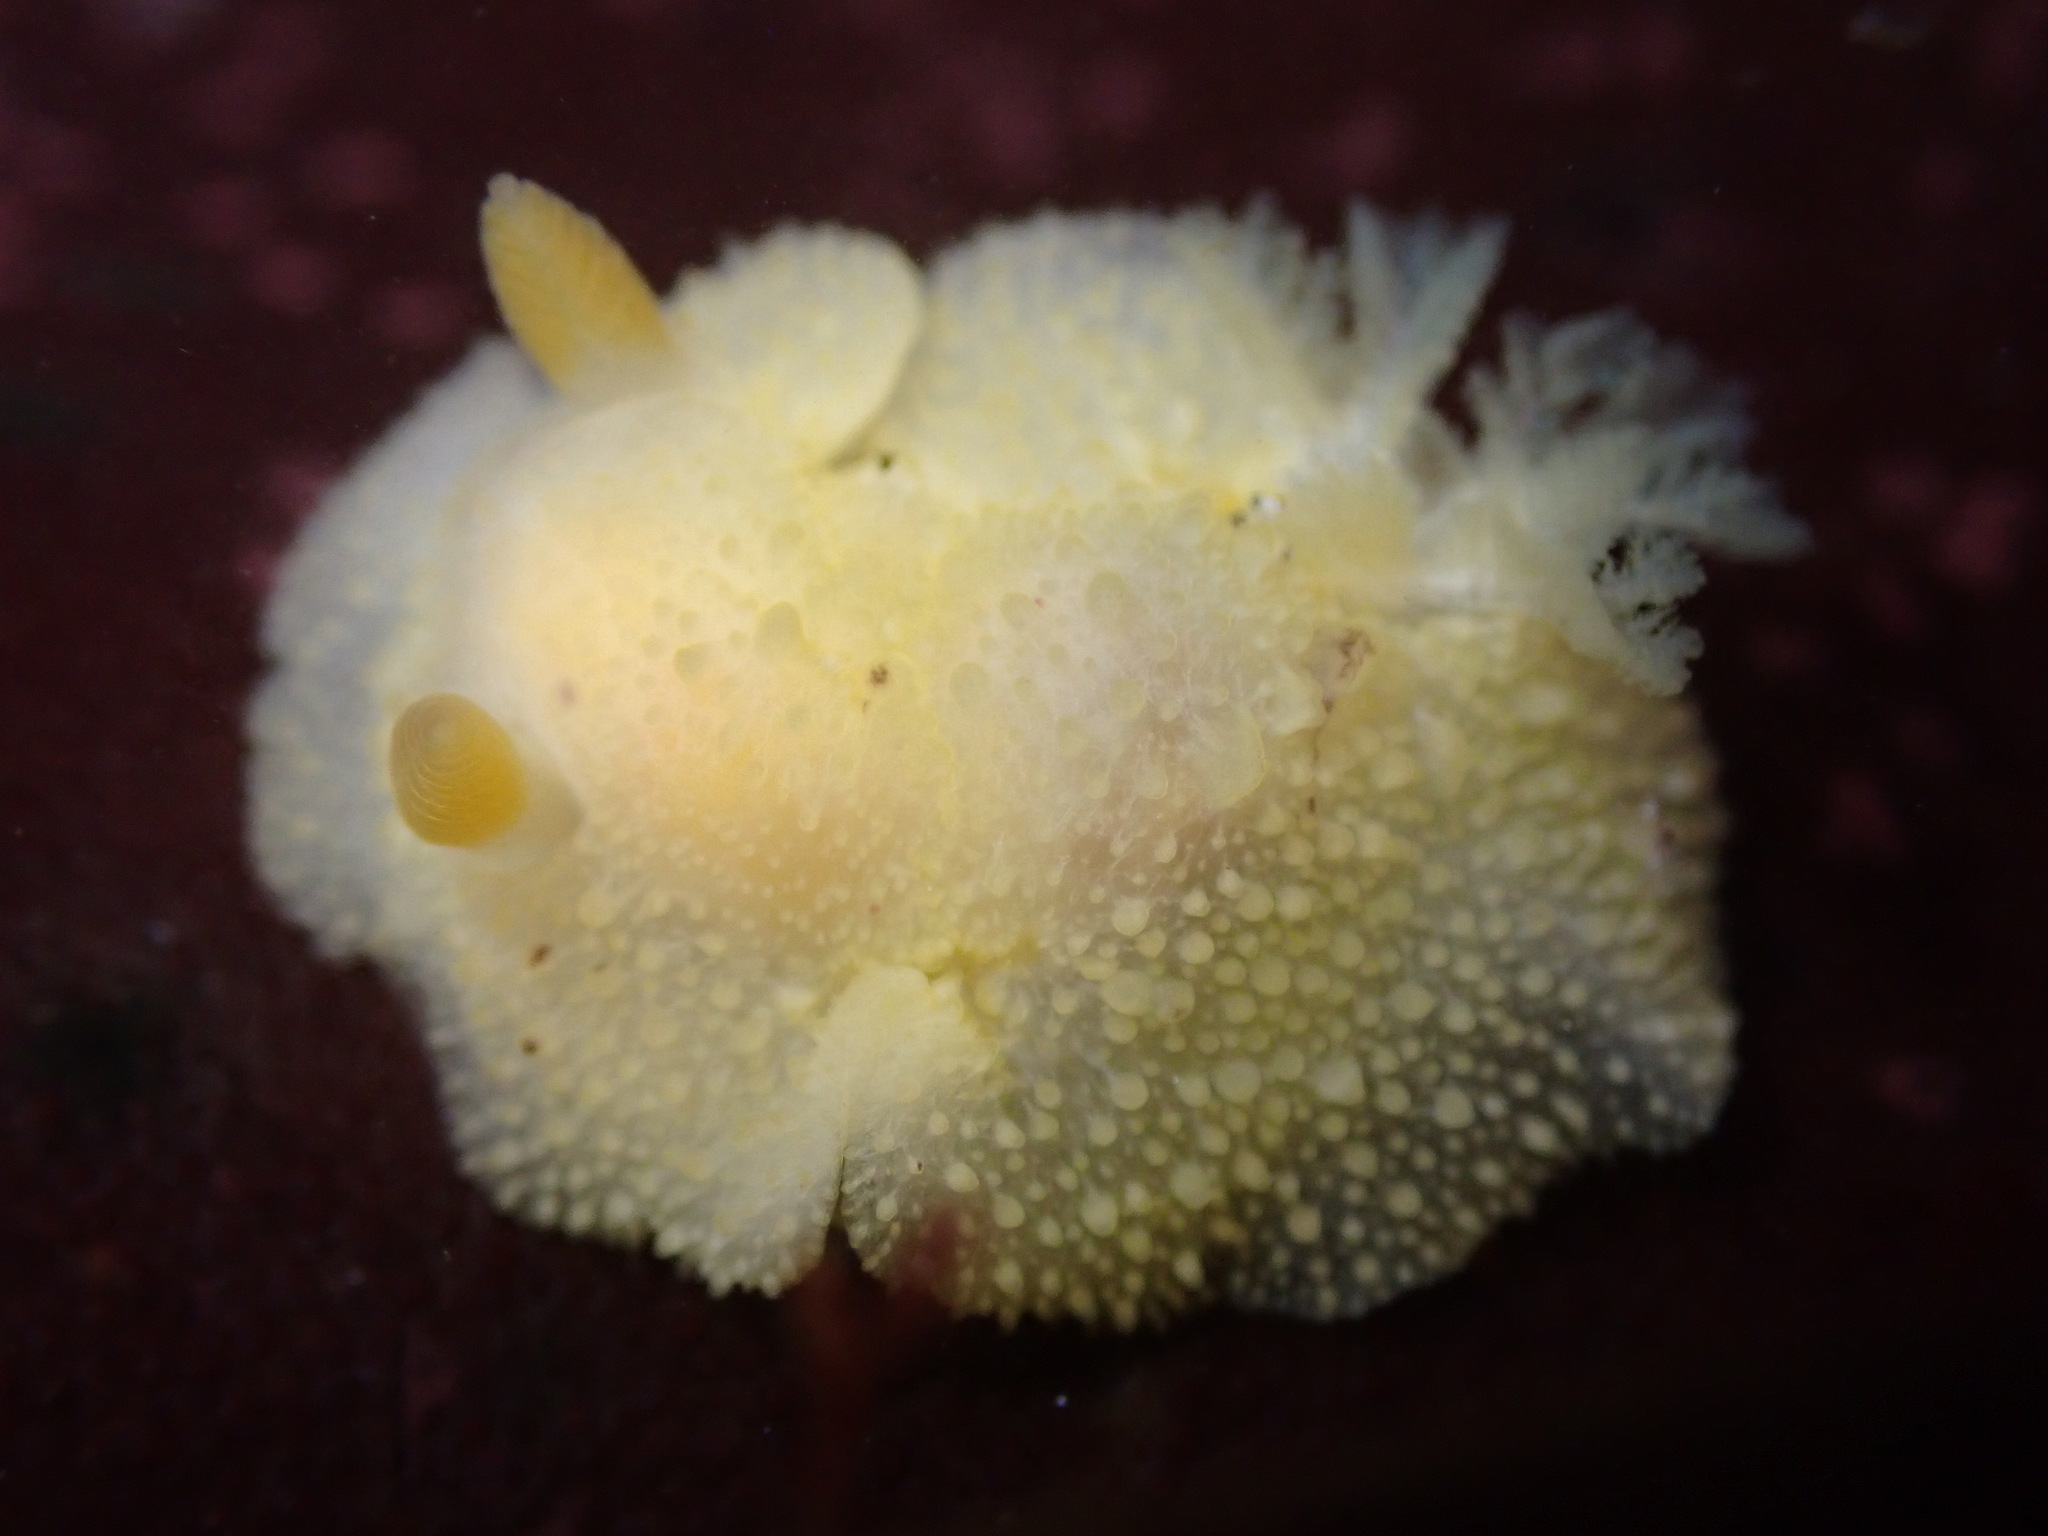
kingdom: Animalia
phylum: Mollusca
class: Gastropoda
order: Nudibranchia
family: Dorididae
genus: Doris
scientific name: Doris montereyensis
